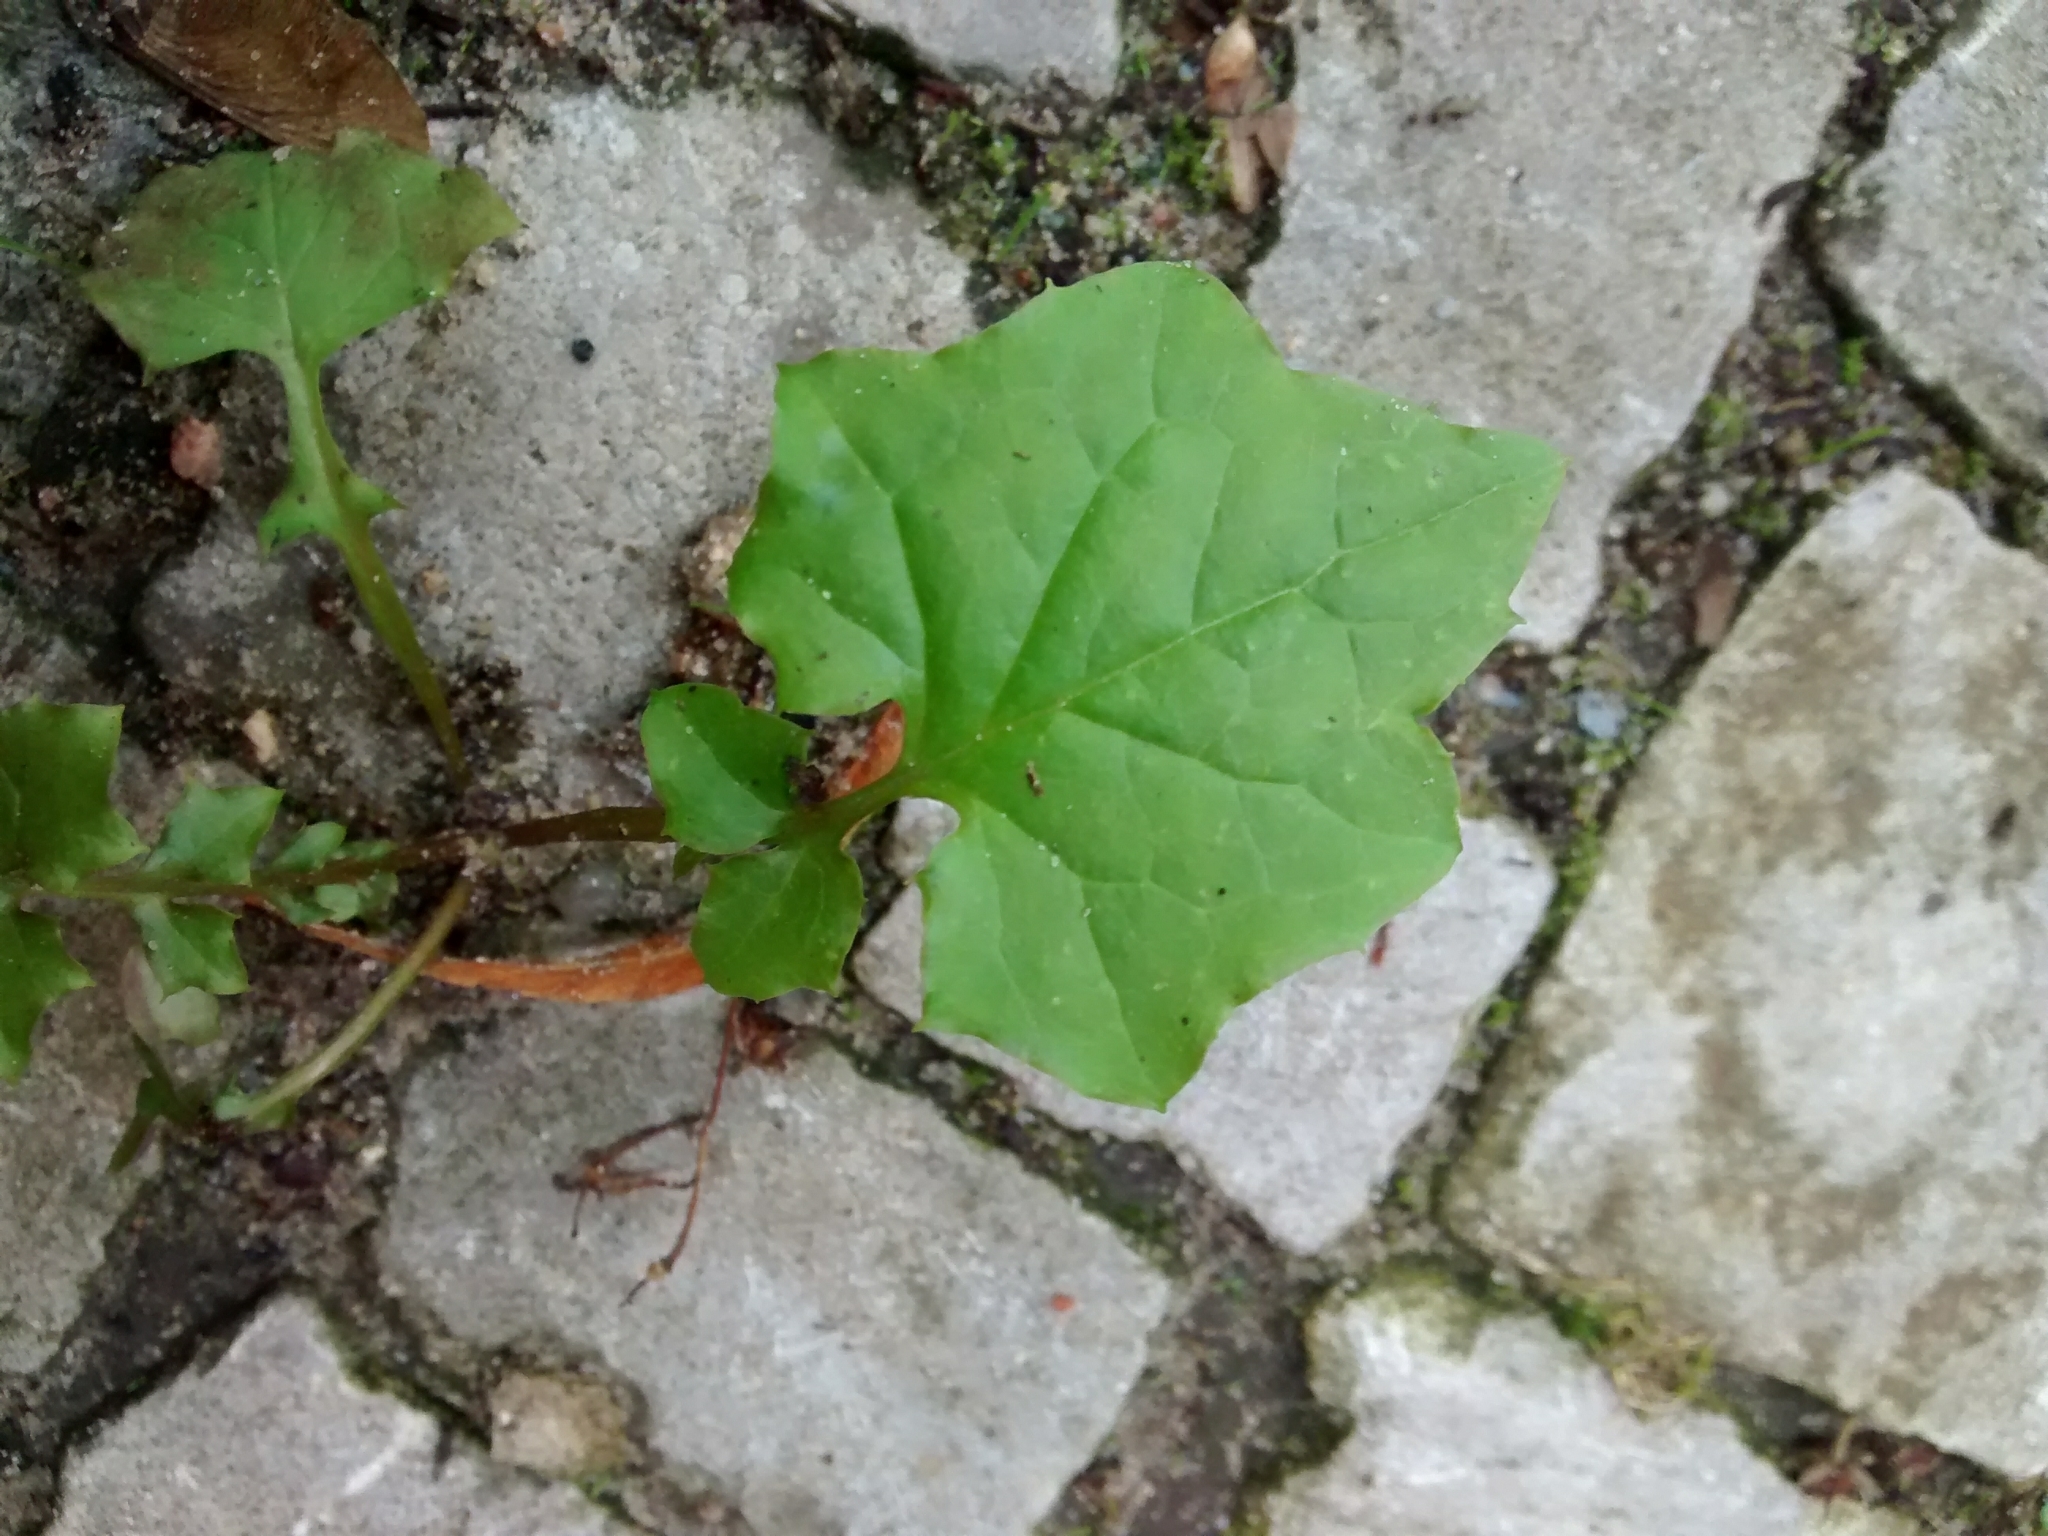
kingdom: Plantae
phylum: Tracheophyta
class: Magnoliopsida
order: Asterales
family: Asteraceae
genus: Mycelis
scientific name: Mycelis muralis
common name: Wall lettuce
